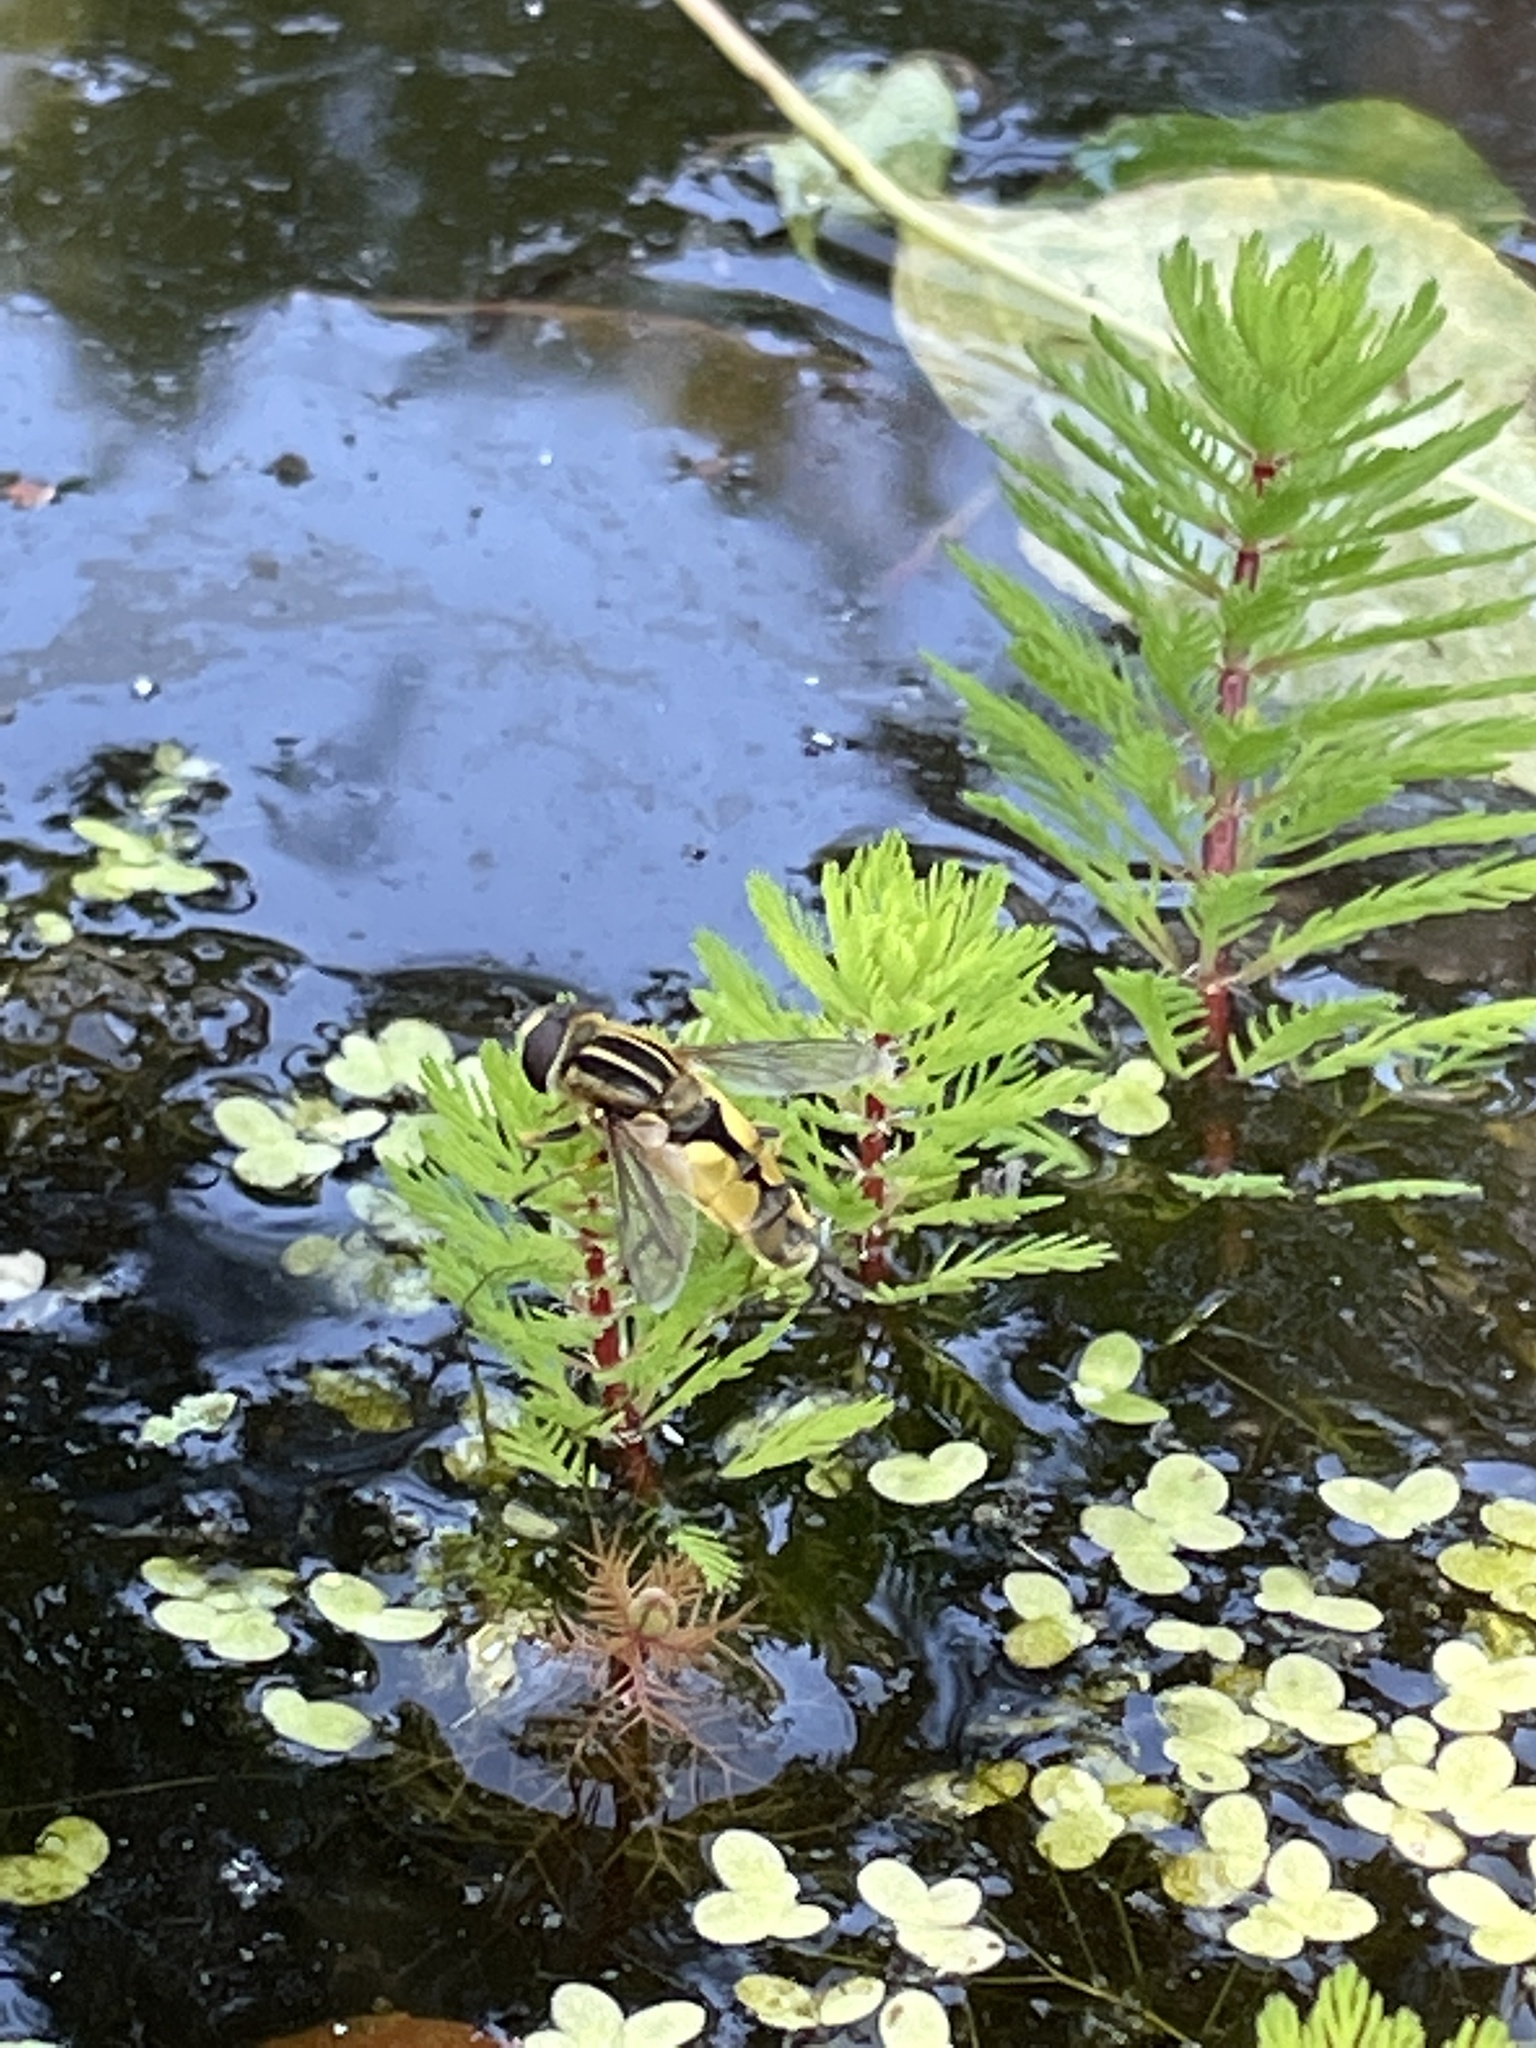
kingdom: Animalia
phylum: Arthropoda
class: Insecta
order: Diptera
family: Syrphidae
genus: Helophilus
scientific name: Helophilus hybridus
